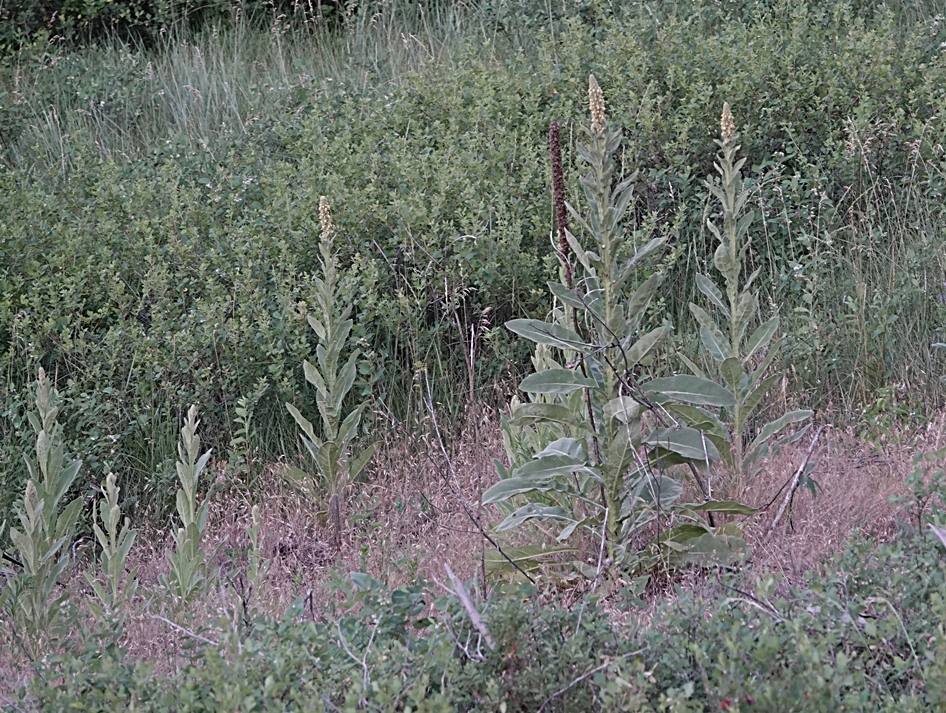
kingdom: Plantae
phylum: Tracheophyta
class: Magnoliopsida
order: Lamiales
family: Scrophulariaceae
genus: Verbascum
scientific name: Verbascum thapsus
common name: Common mullein
